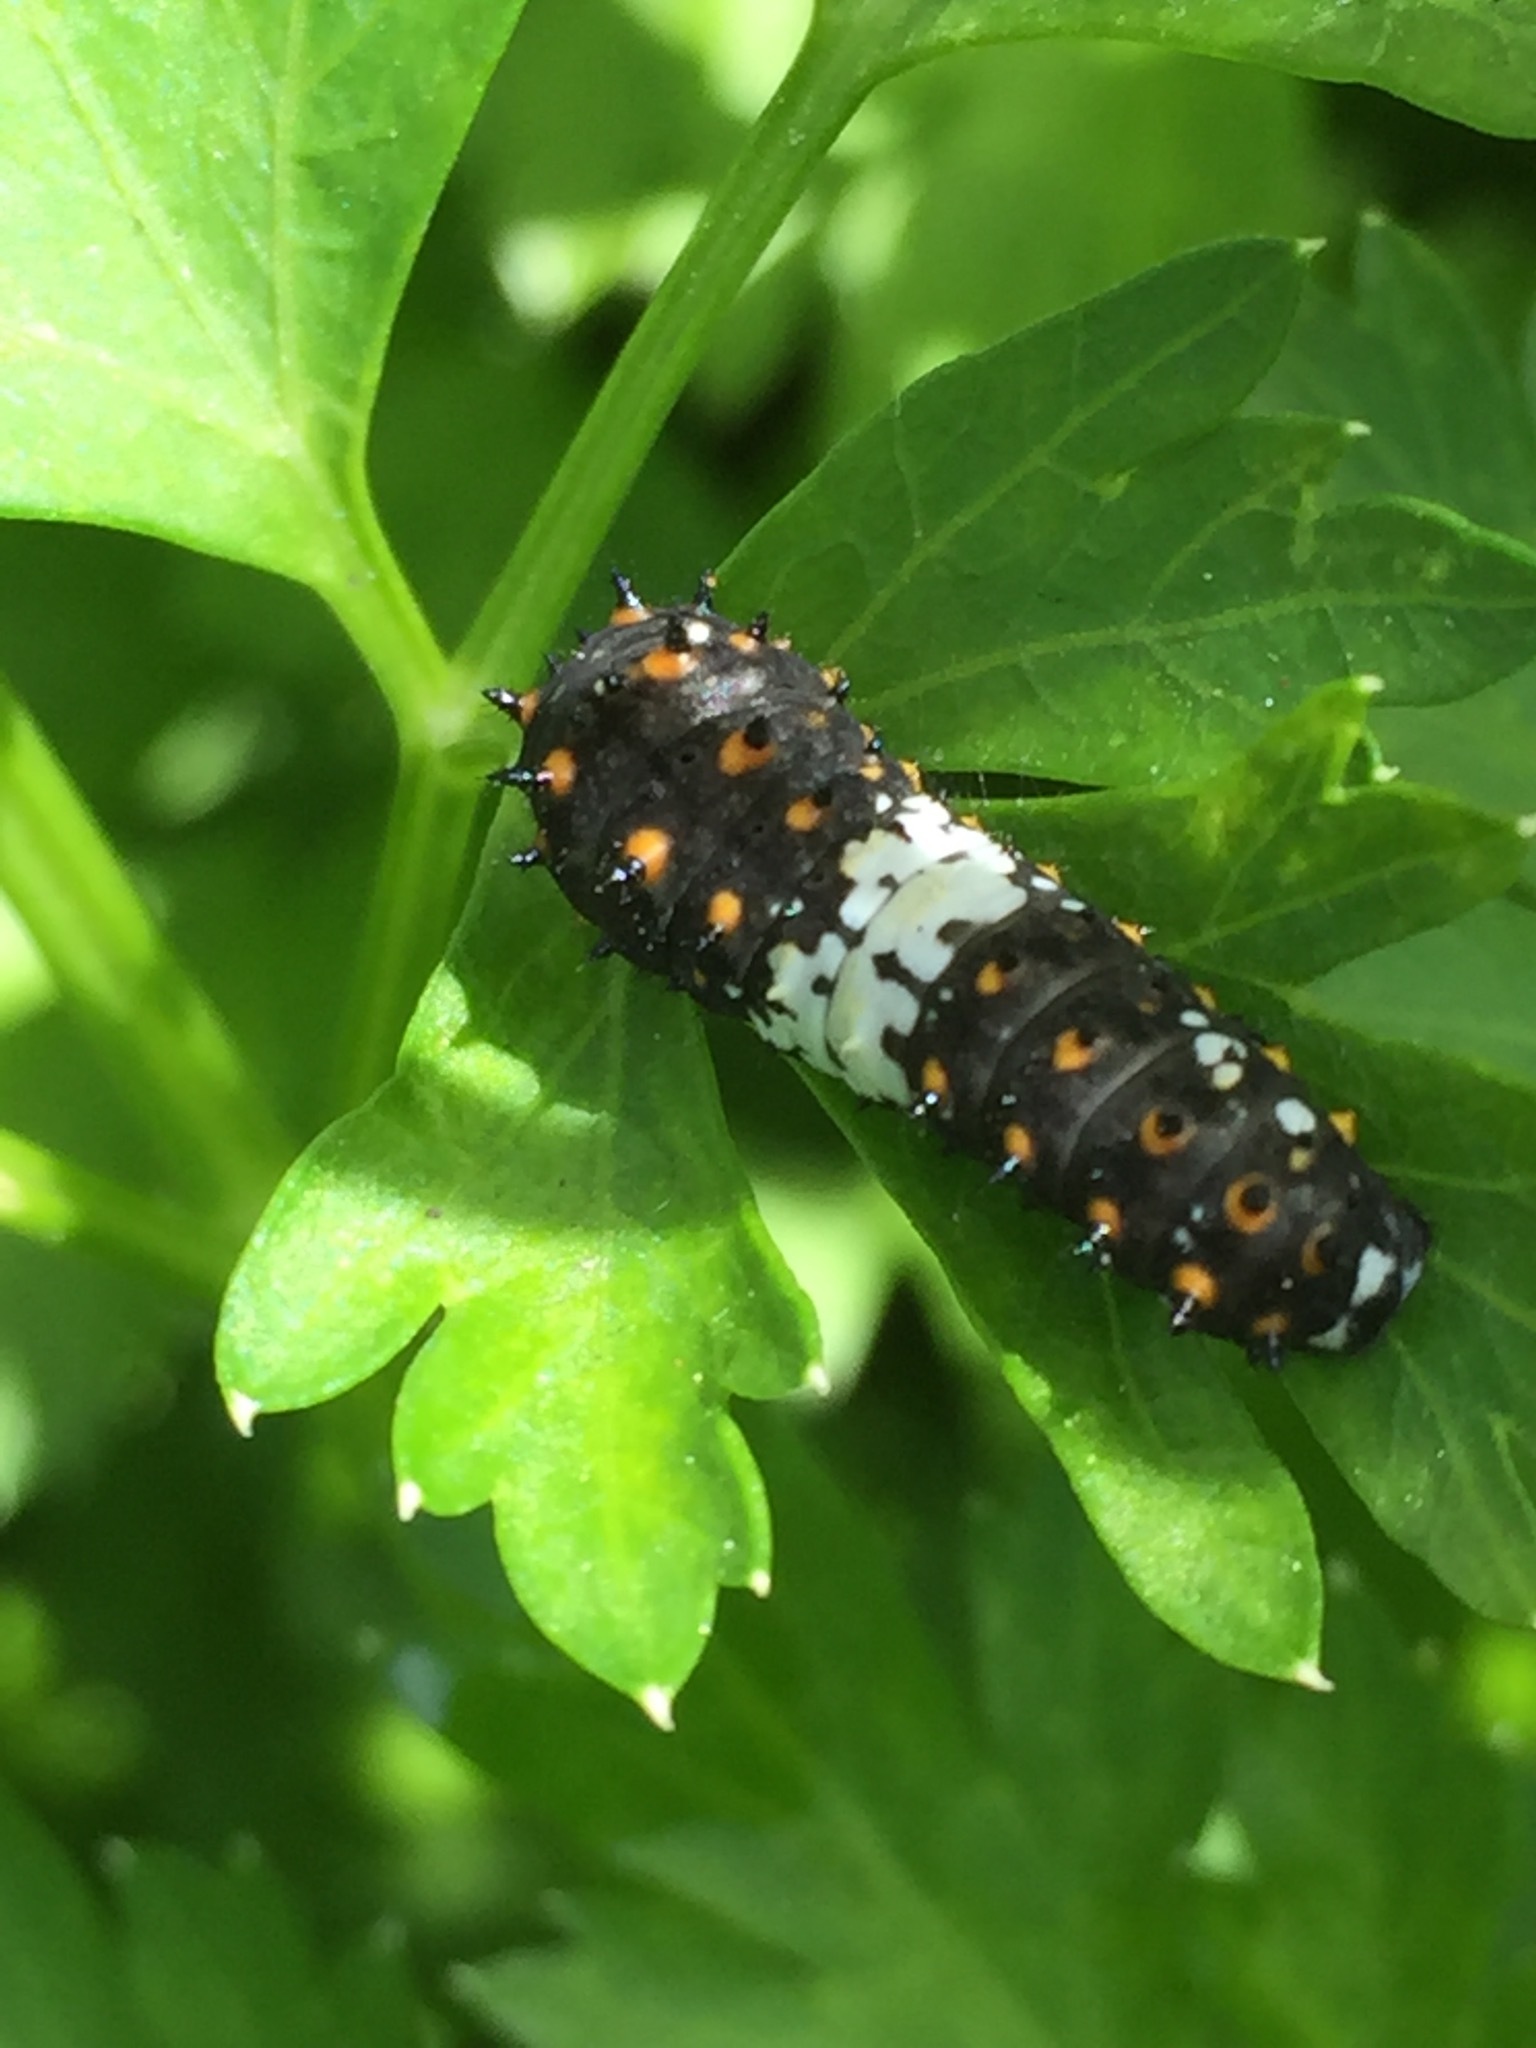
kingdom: Animalia
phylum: Arthropoda
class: Insecta
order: Lepidoptera
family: Papilionidae
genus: Papilio
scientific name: Papilio zelicaon
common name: Anise swallowtail
